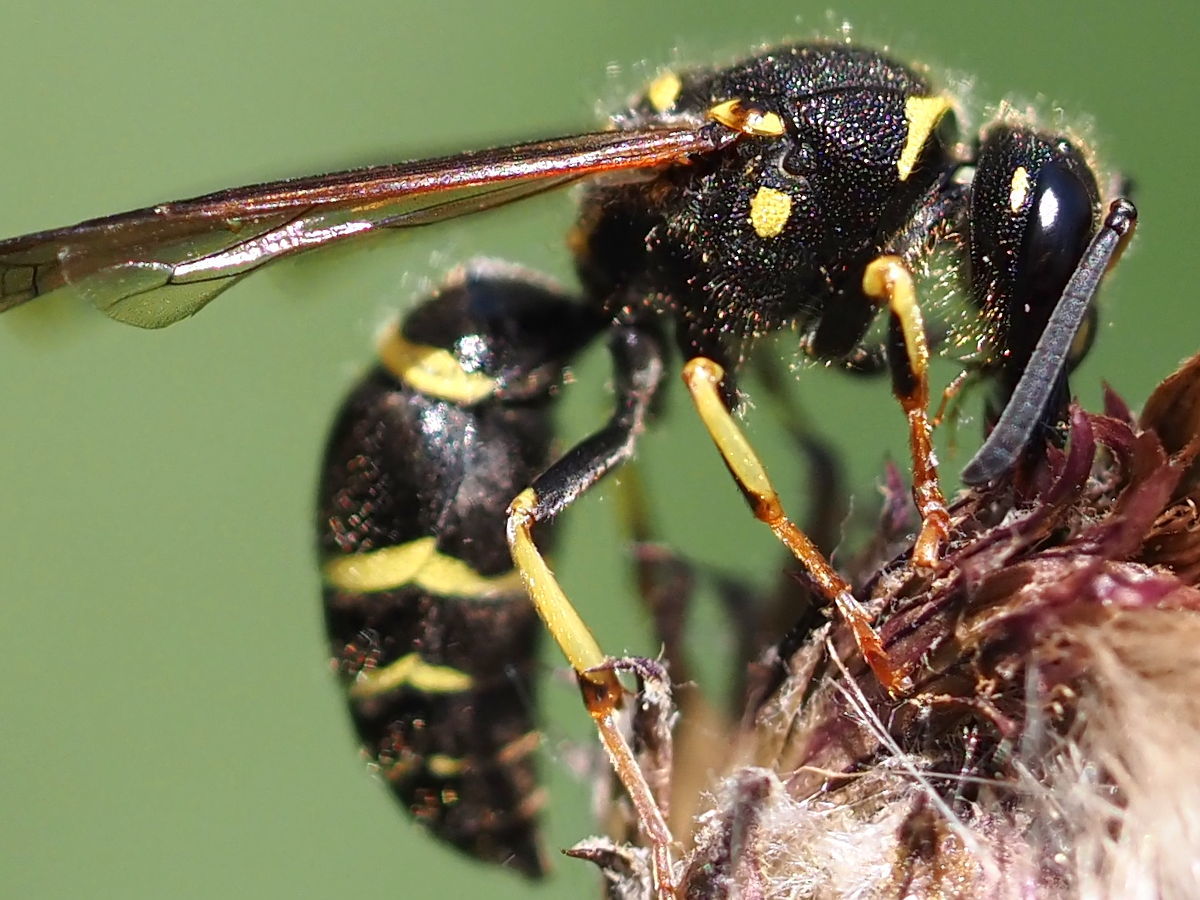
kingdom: Animalia
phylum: Arthropoda
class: Insecta
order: Hymenoptera
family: Vespidae
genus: Ancistrocerus
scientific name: Ancistrocerus catskill
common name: Vespid wasp
